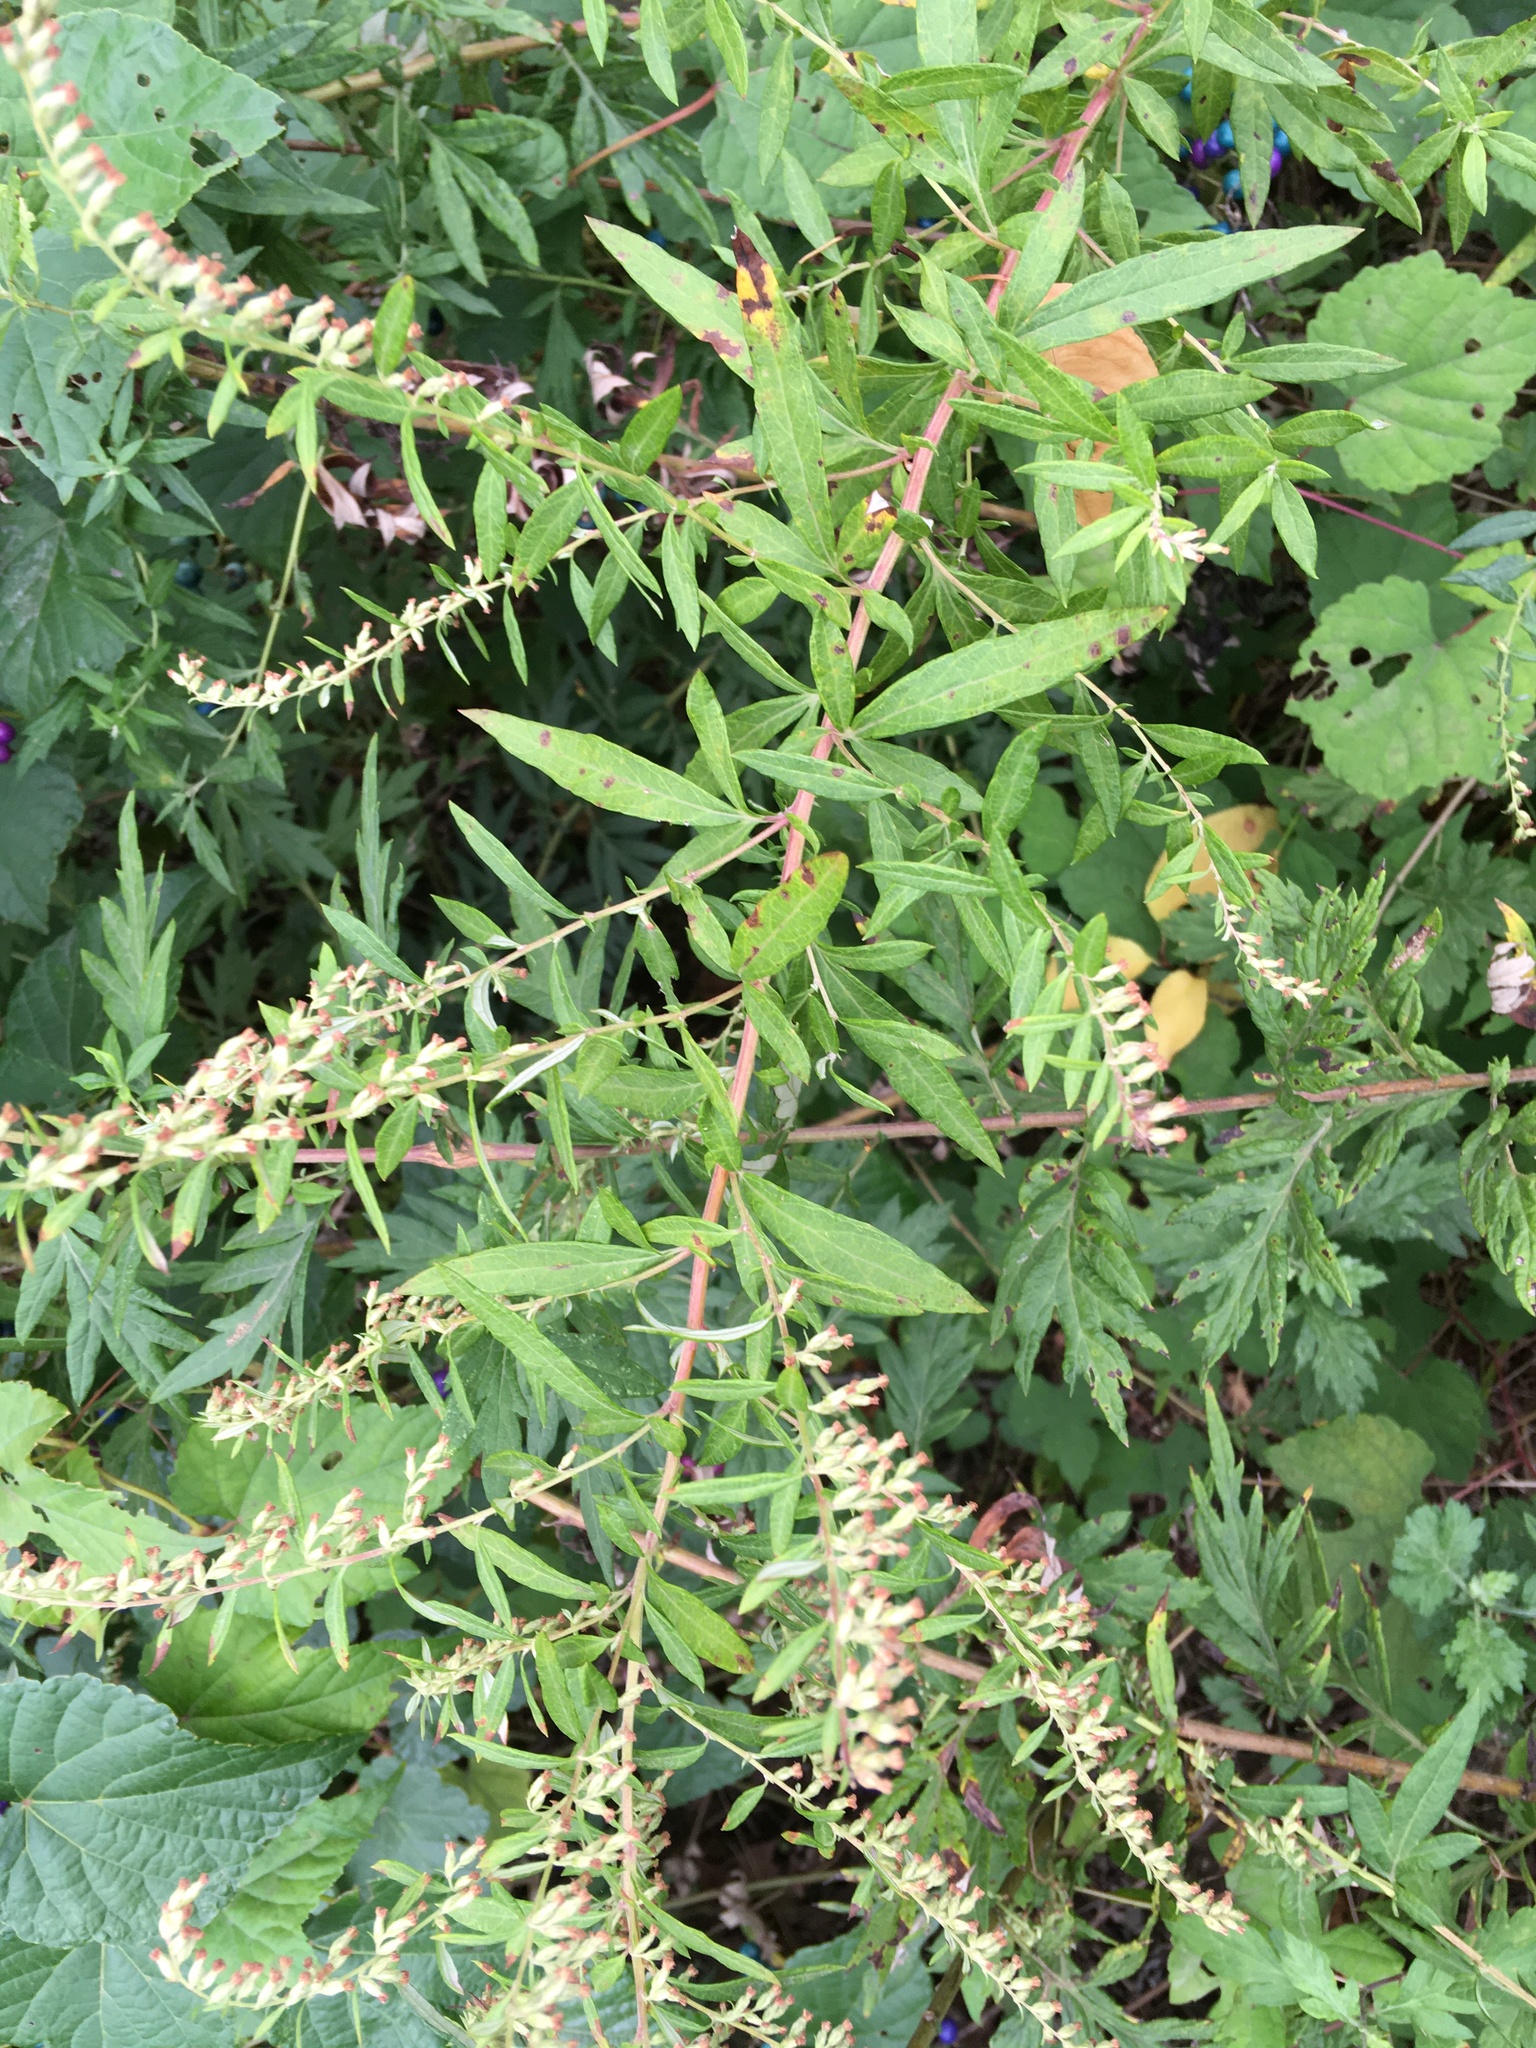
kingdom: Plantae
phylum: Tracheophyta
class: Magnoliopsida
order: Asterales
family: Asteraceae
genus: Artemisia
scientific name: Artemisia vulgaris
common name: Mugwort
